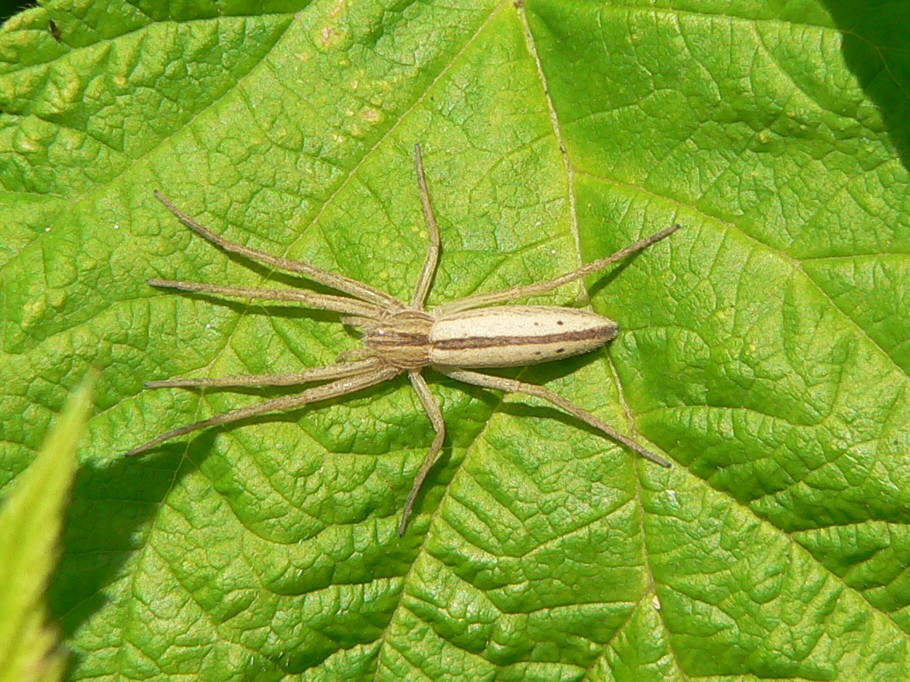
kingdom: Animalia
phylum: Arthropoda
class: Arachnida
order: Araneae
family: Philodromidae
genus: Tibellus
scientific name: Tibellus oblongus
